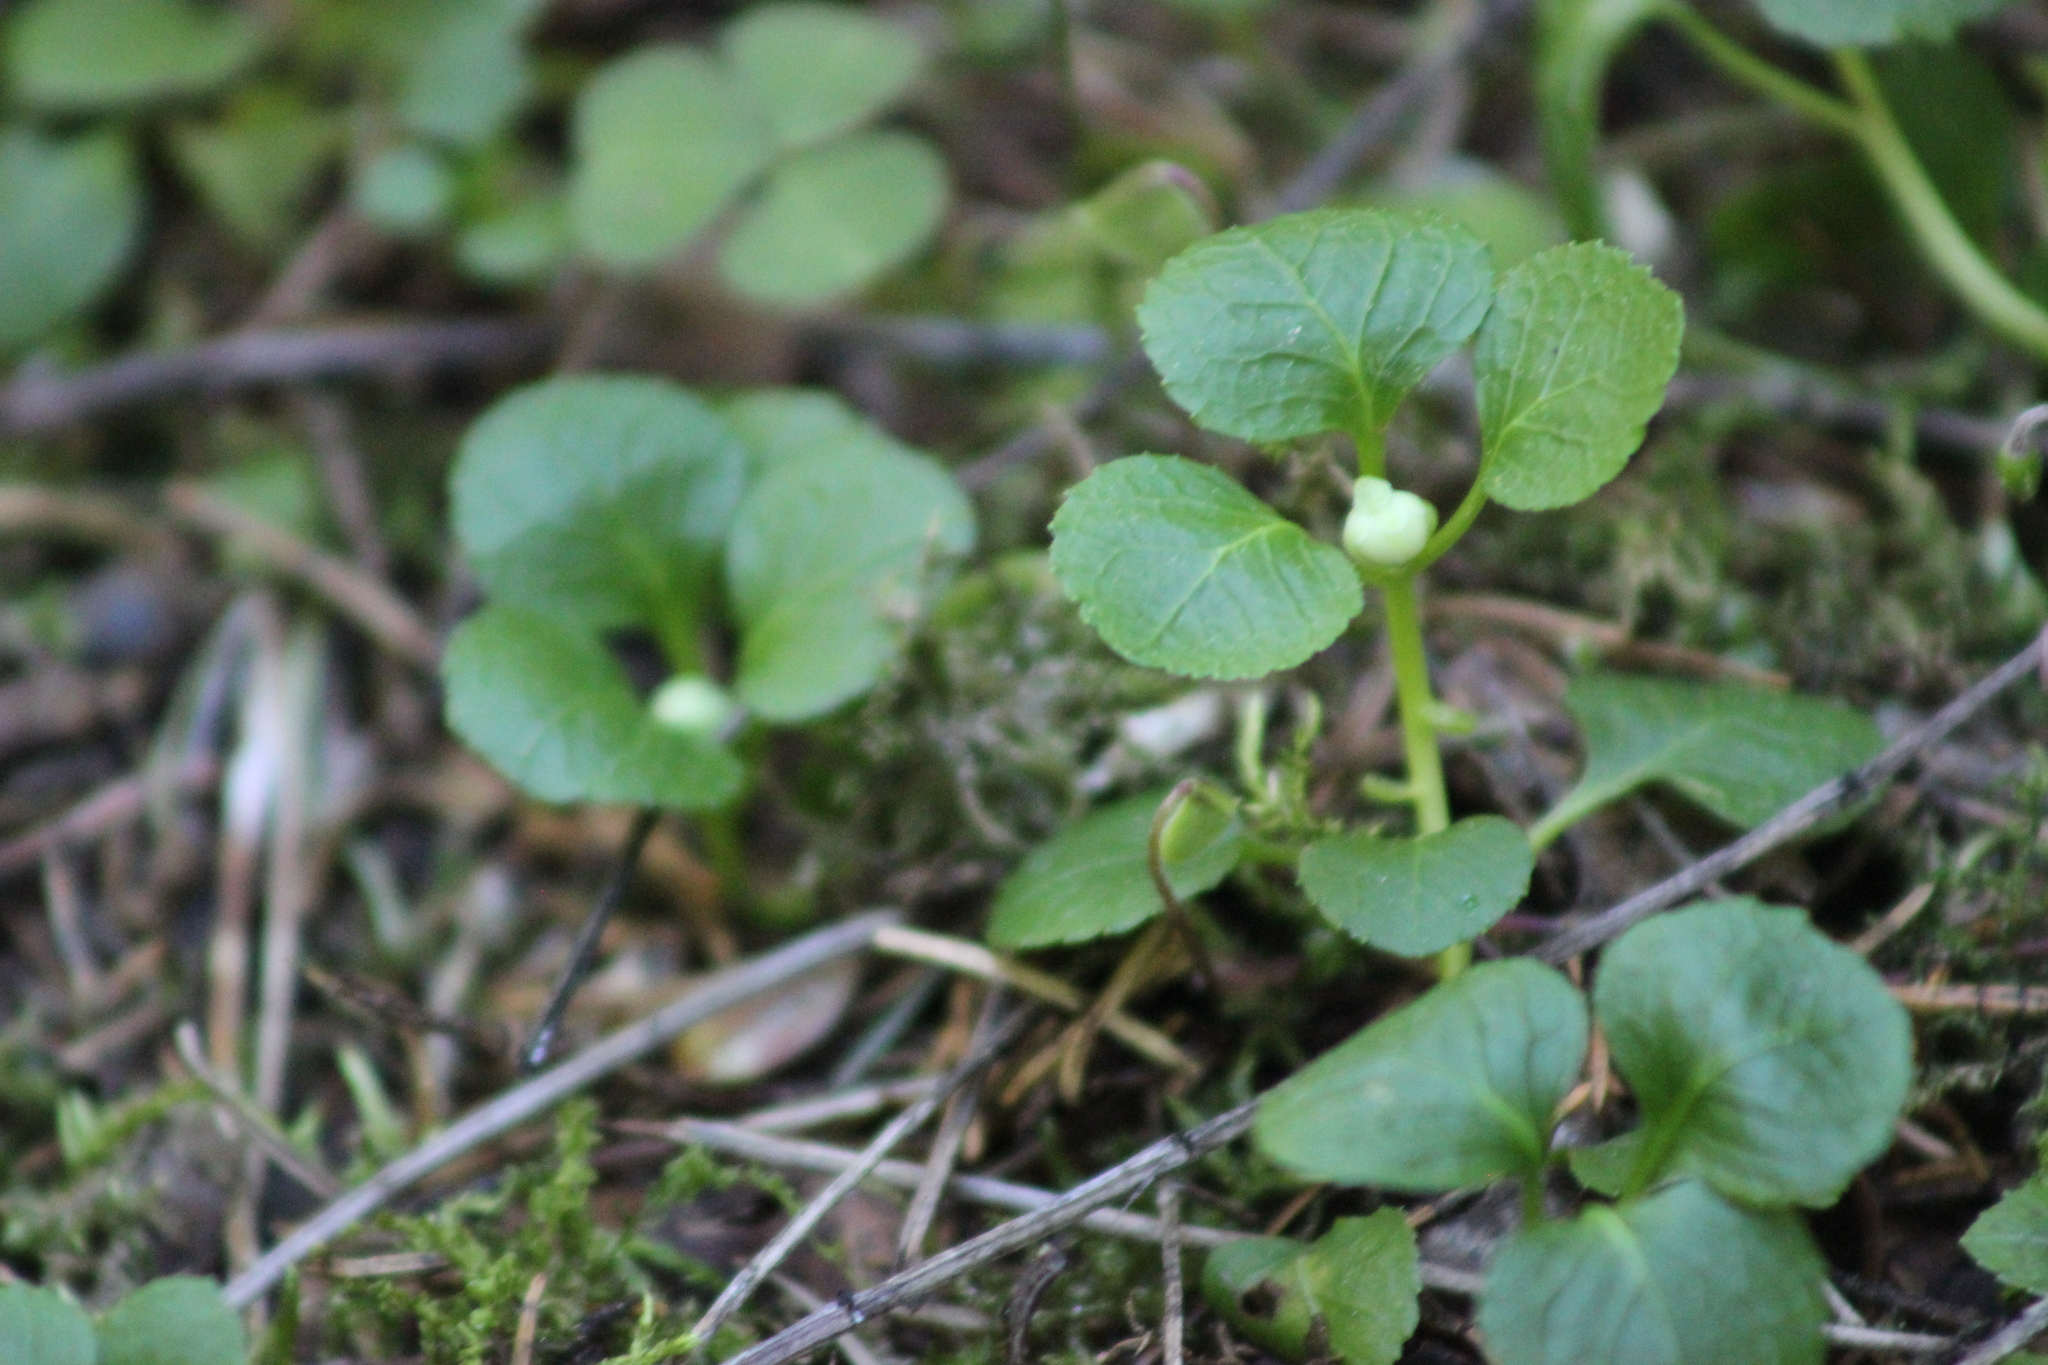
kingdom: Plantae
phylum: Tracheophyta
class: Magnoliopsida
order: Ericales
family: Ericaceae
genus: Moneses
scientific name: Moneses uniflora
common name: One-flowered wintergreen
